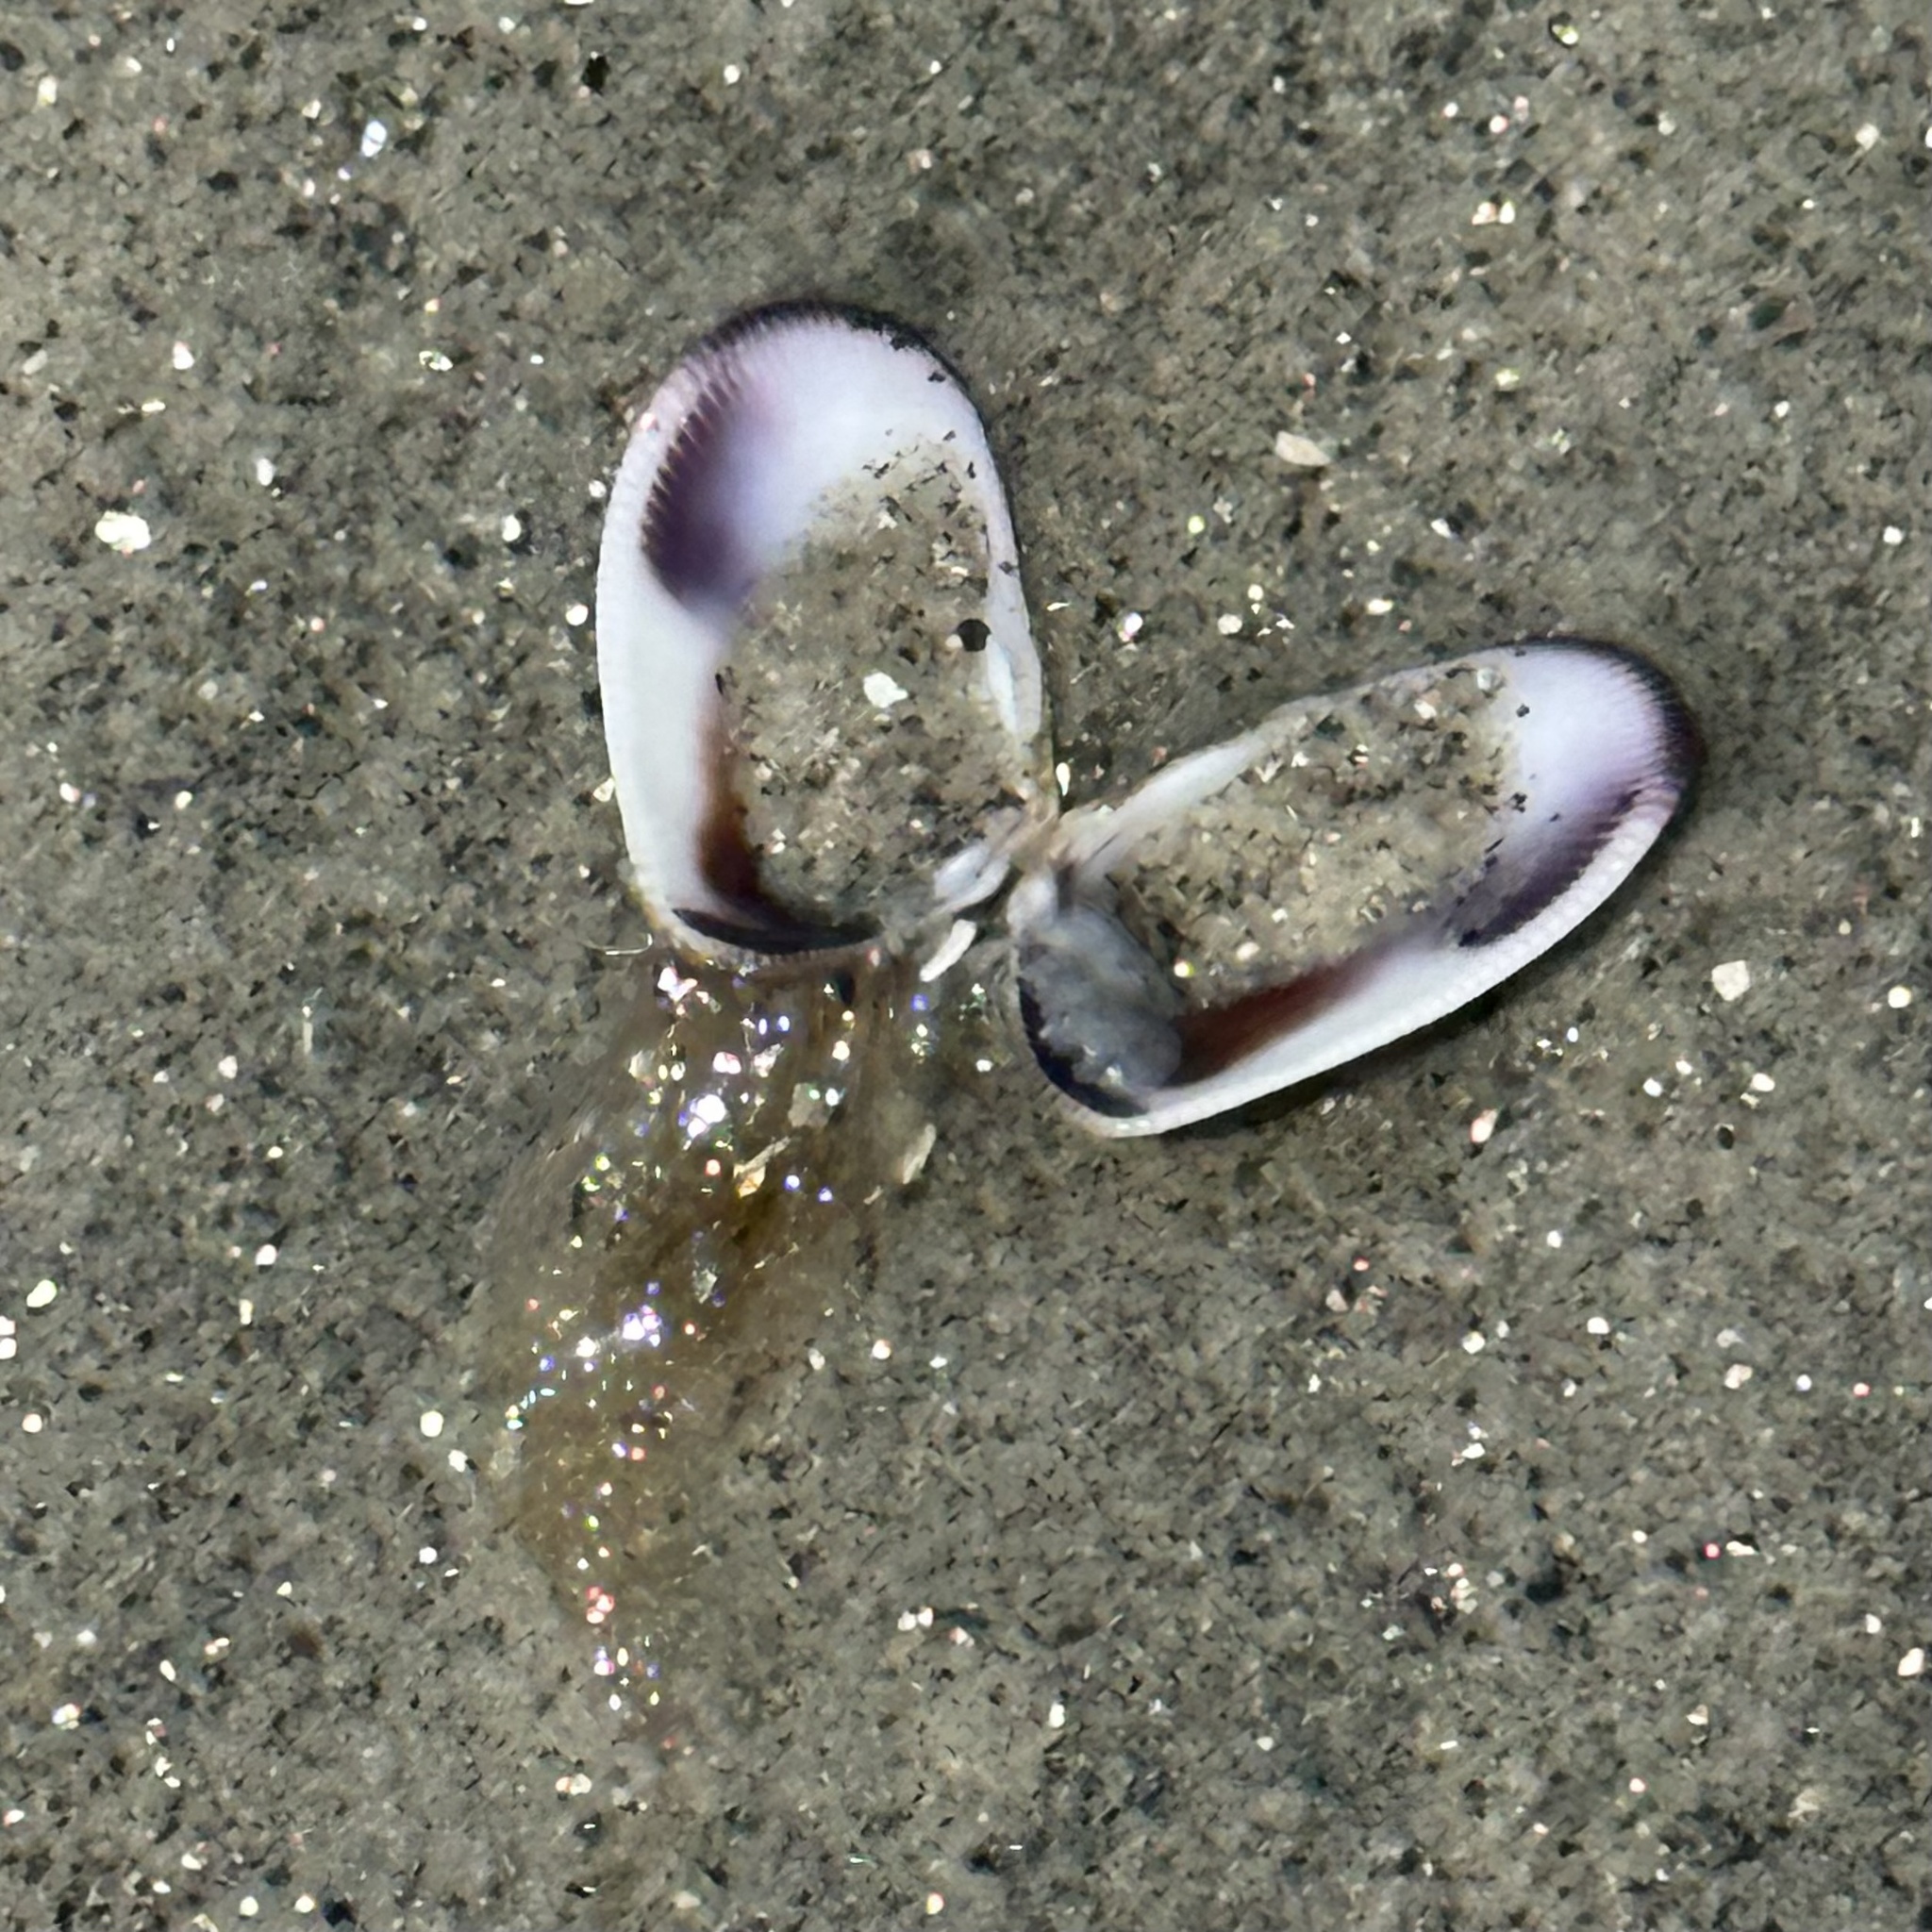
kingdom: Animalia
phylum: Mollusca
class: Bivalvia
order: Cardiida
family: Donacidae
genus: Donax
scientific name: Donax gouldii
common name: Gould beanclam
